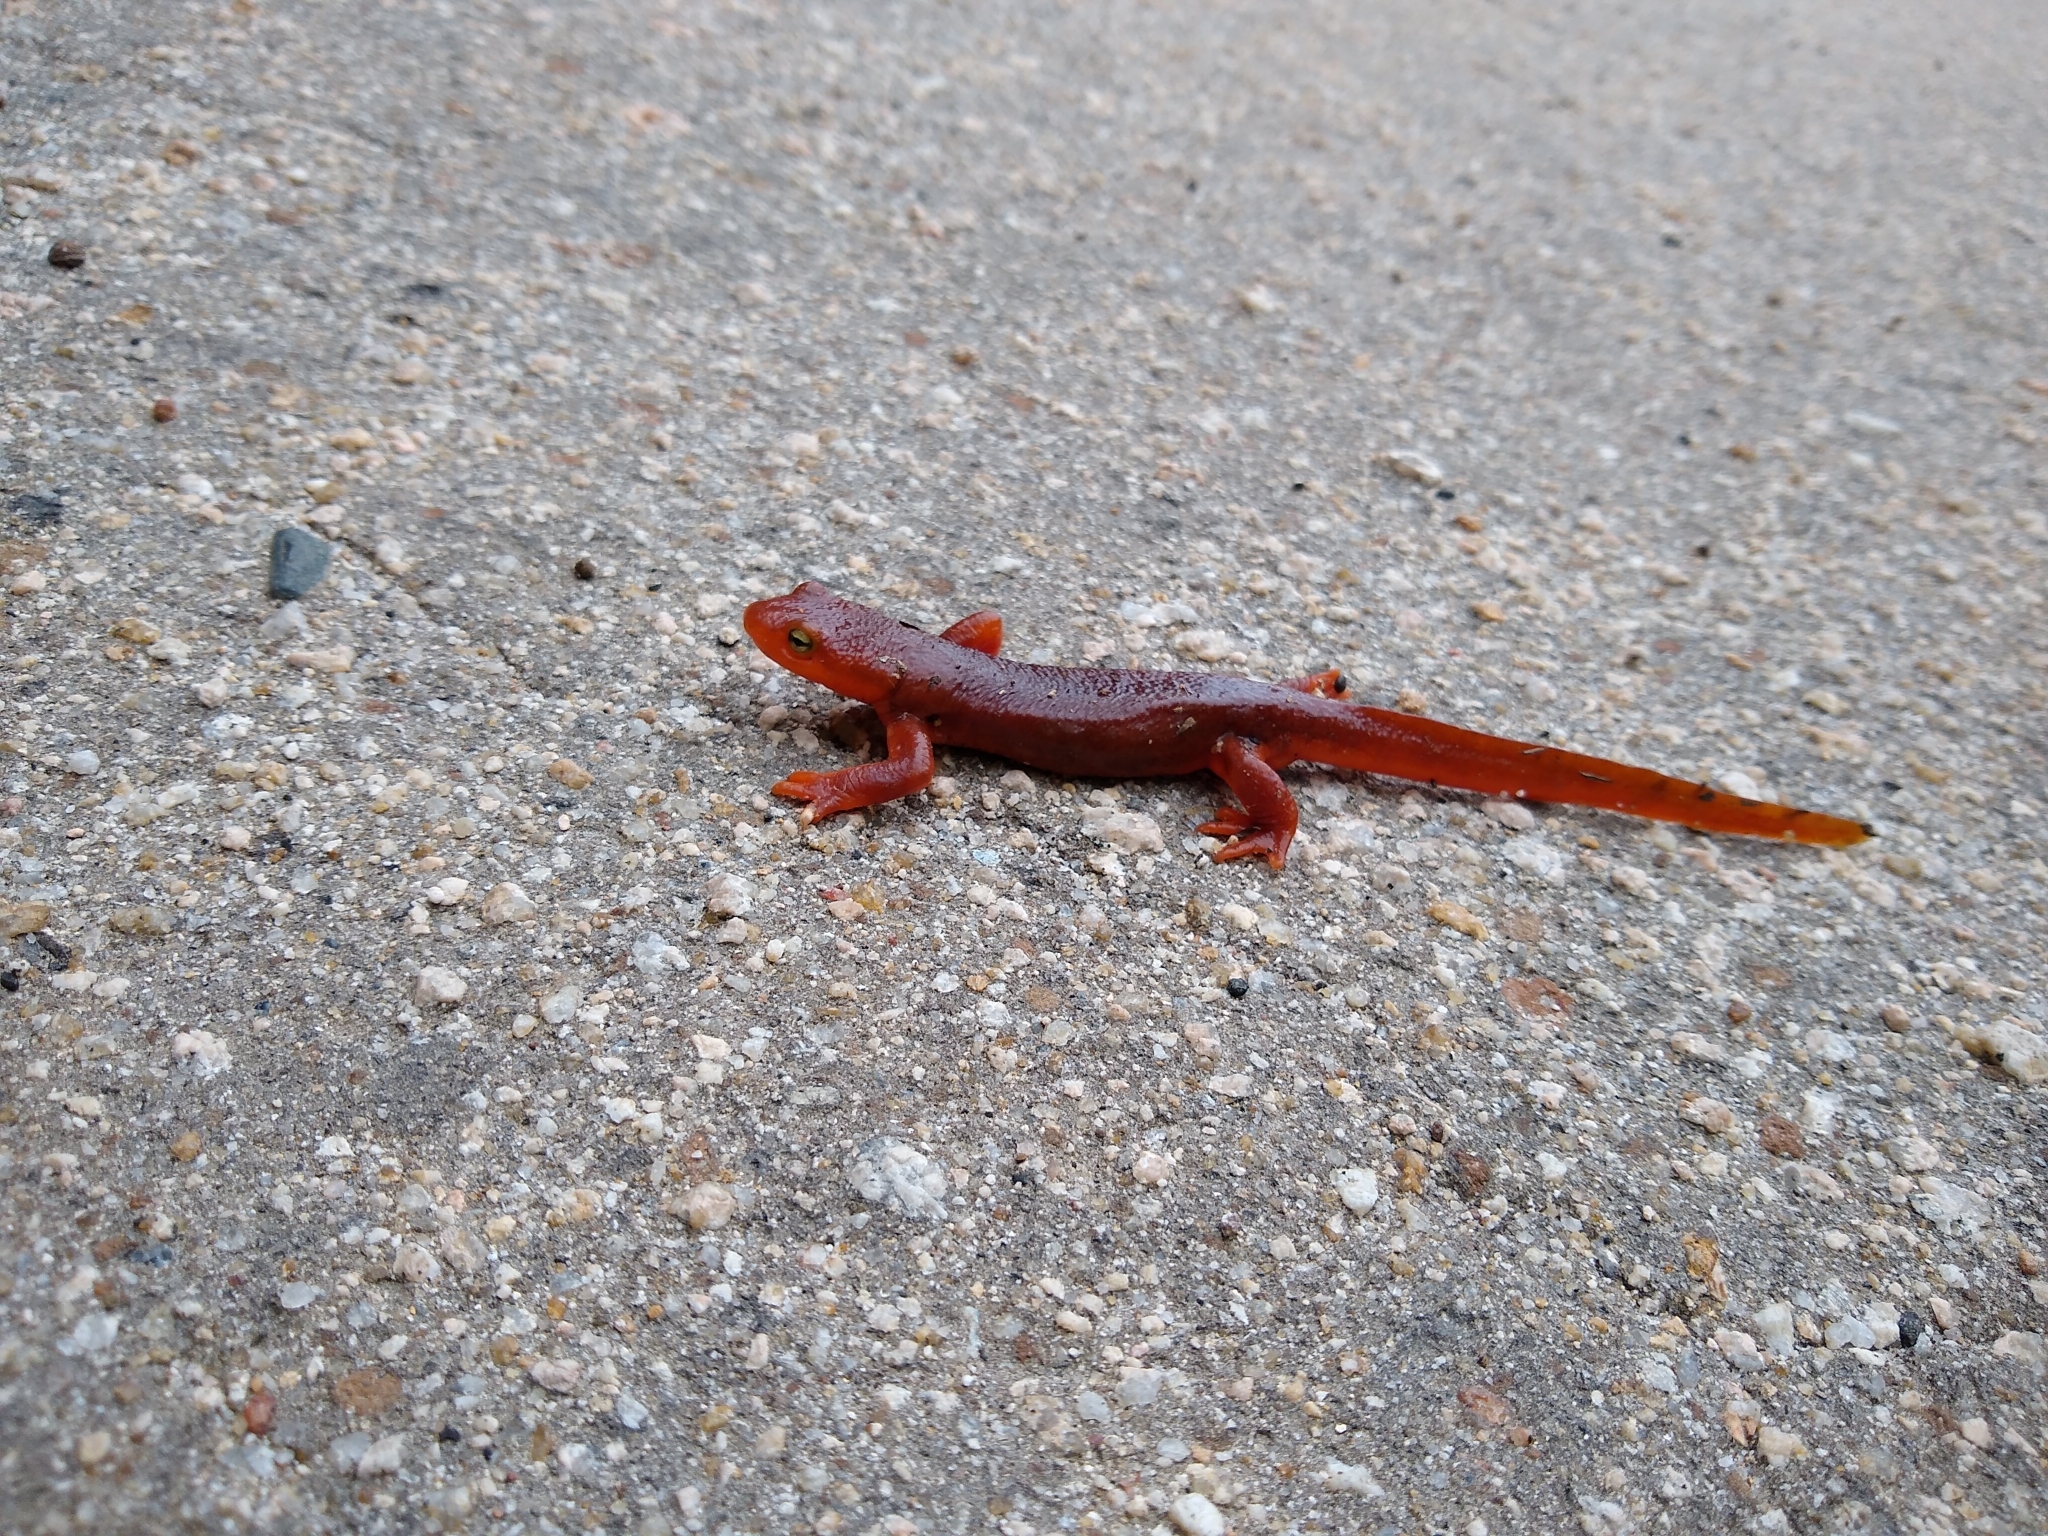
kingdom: Animalia
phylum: Chordata
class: Amphibia
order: Caudata
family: Salamandridae
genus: Taricha
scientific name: Taricha
